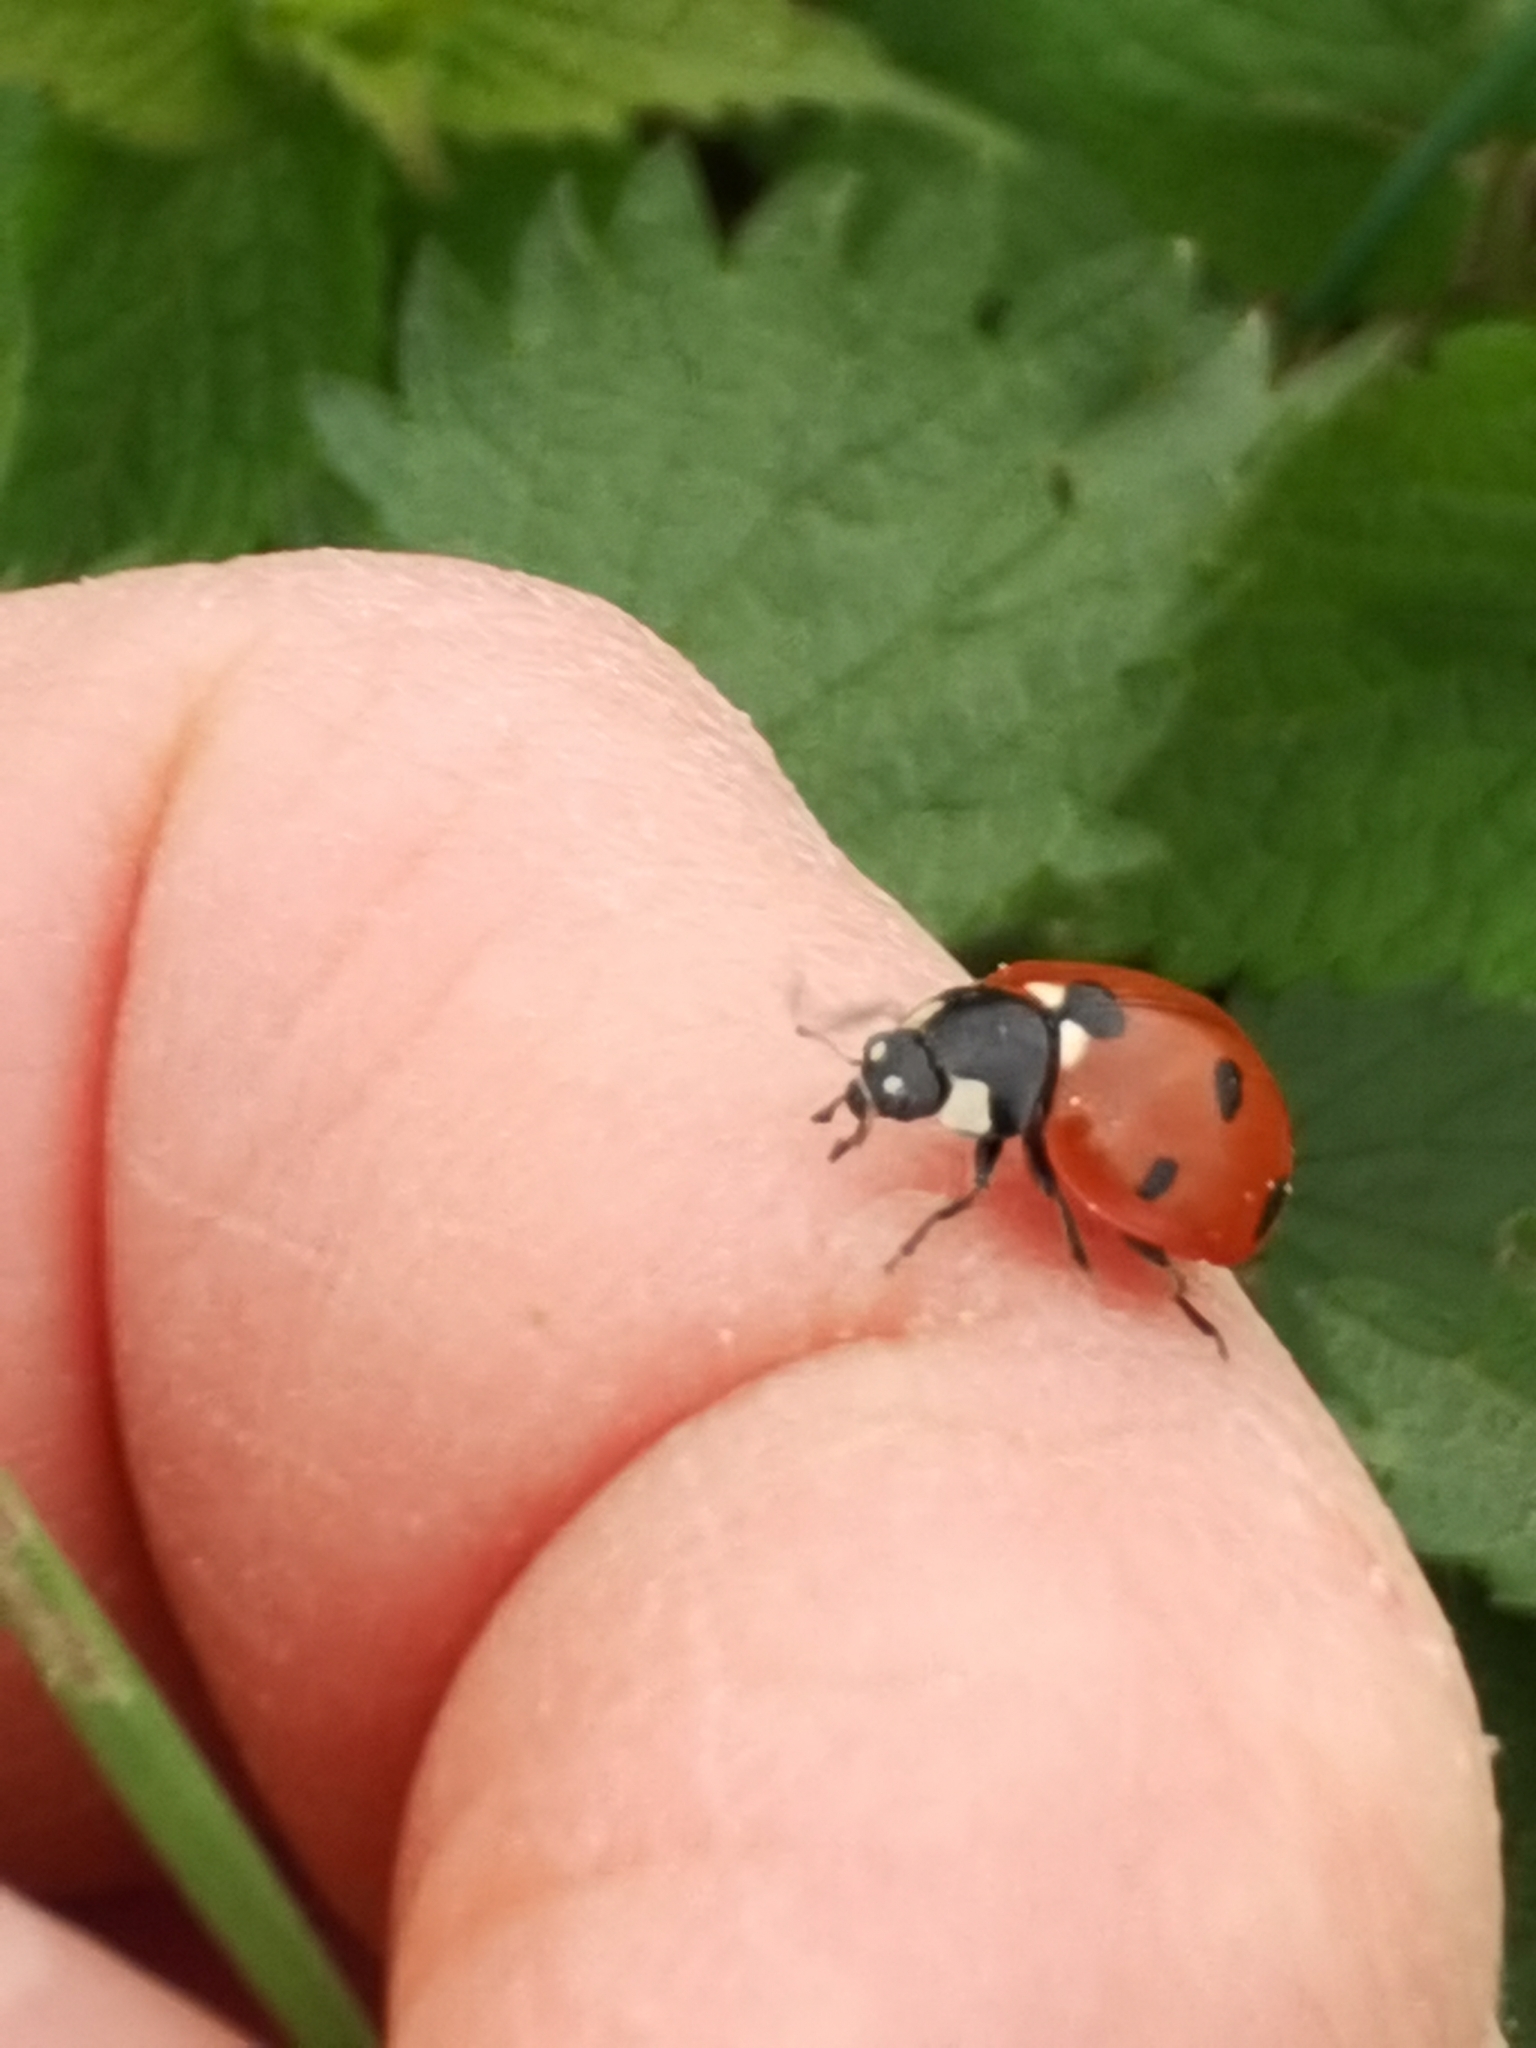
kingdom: Animalia
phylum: Arthropoda
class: Insecta
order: Coleoptera
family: Coccinellidae
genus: Coccinella
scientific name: Coccinella septempunctata
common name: Sevenspotted lady beetle
